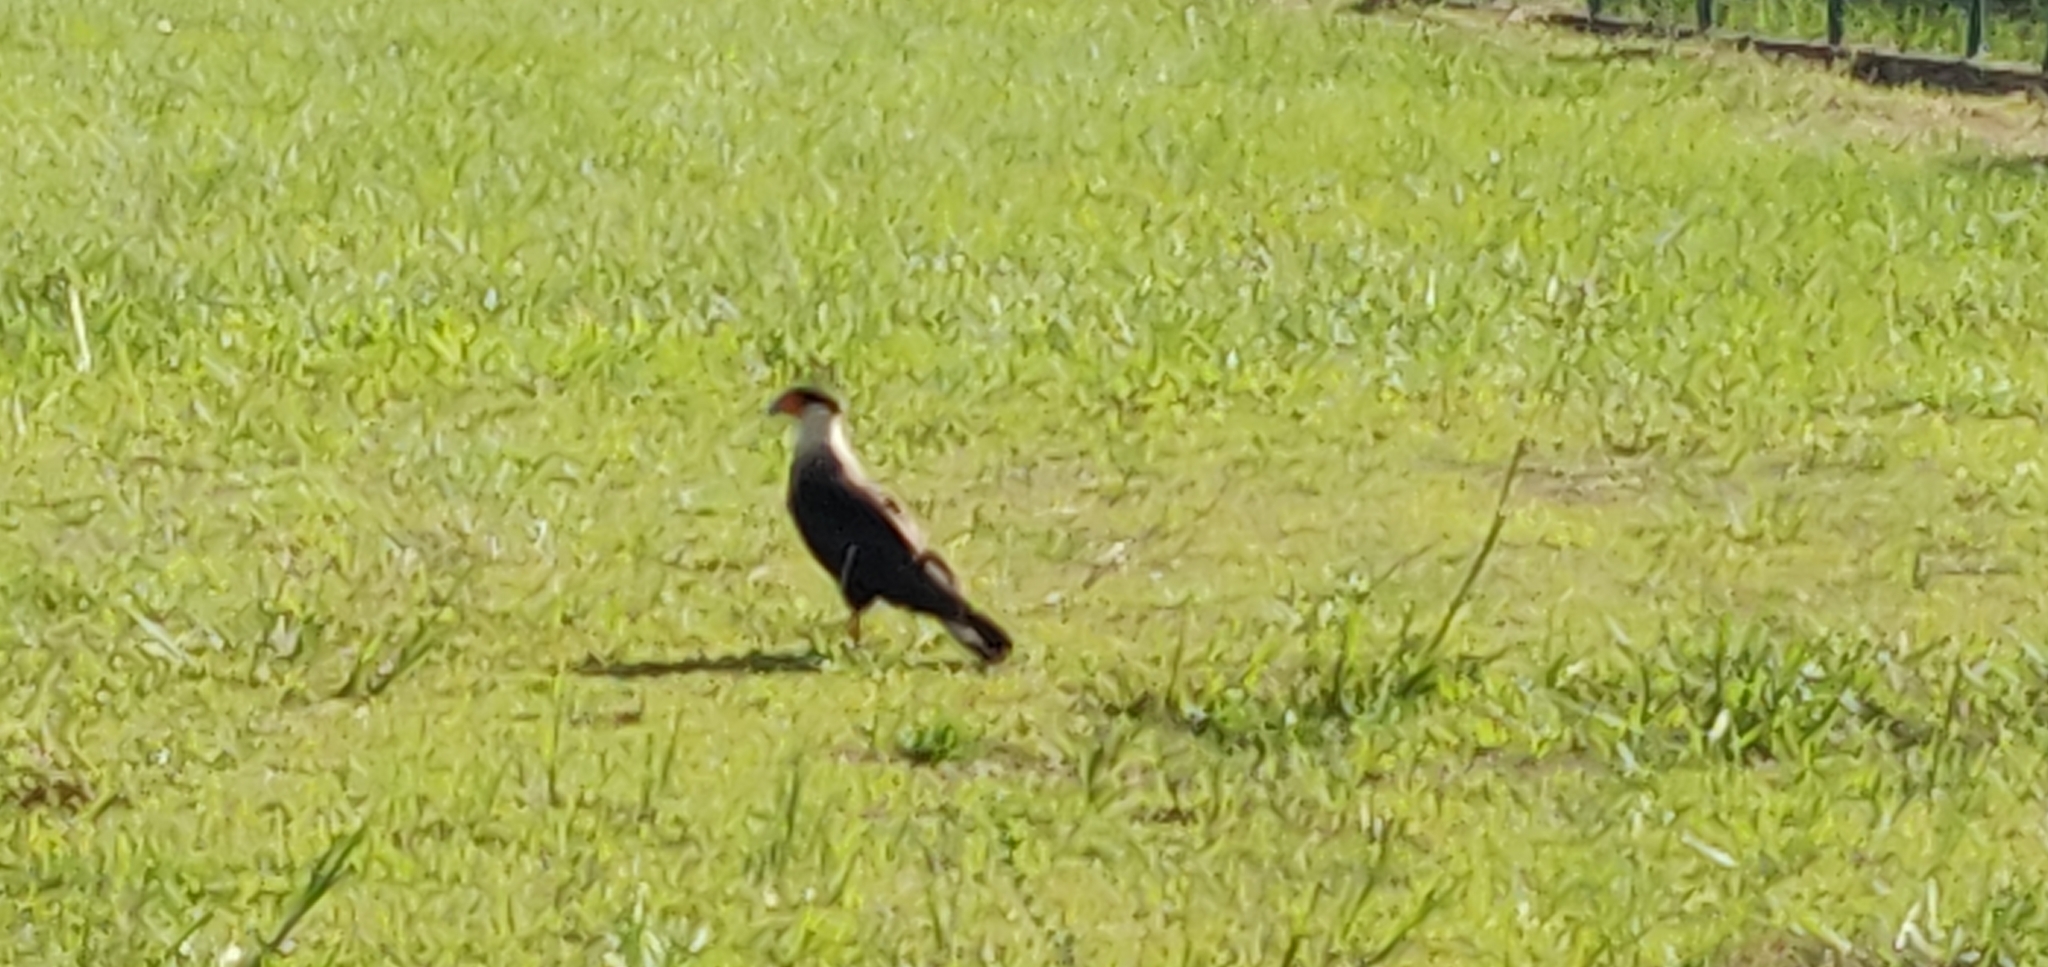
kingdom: Animalia
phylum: Chordata
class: Aves
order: Falconiformes
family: Falconidae
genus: Caracara
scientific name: Caracara plancus
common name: Southern caracara
